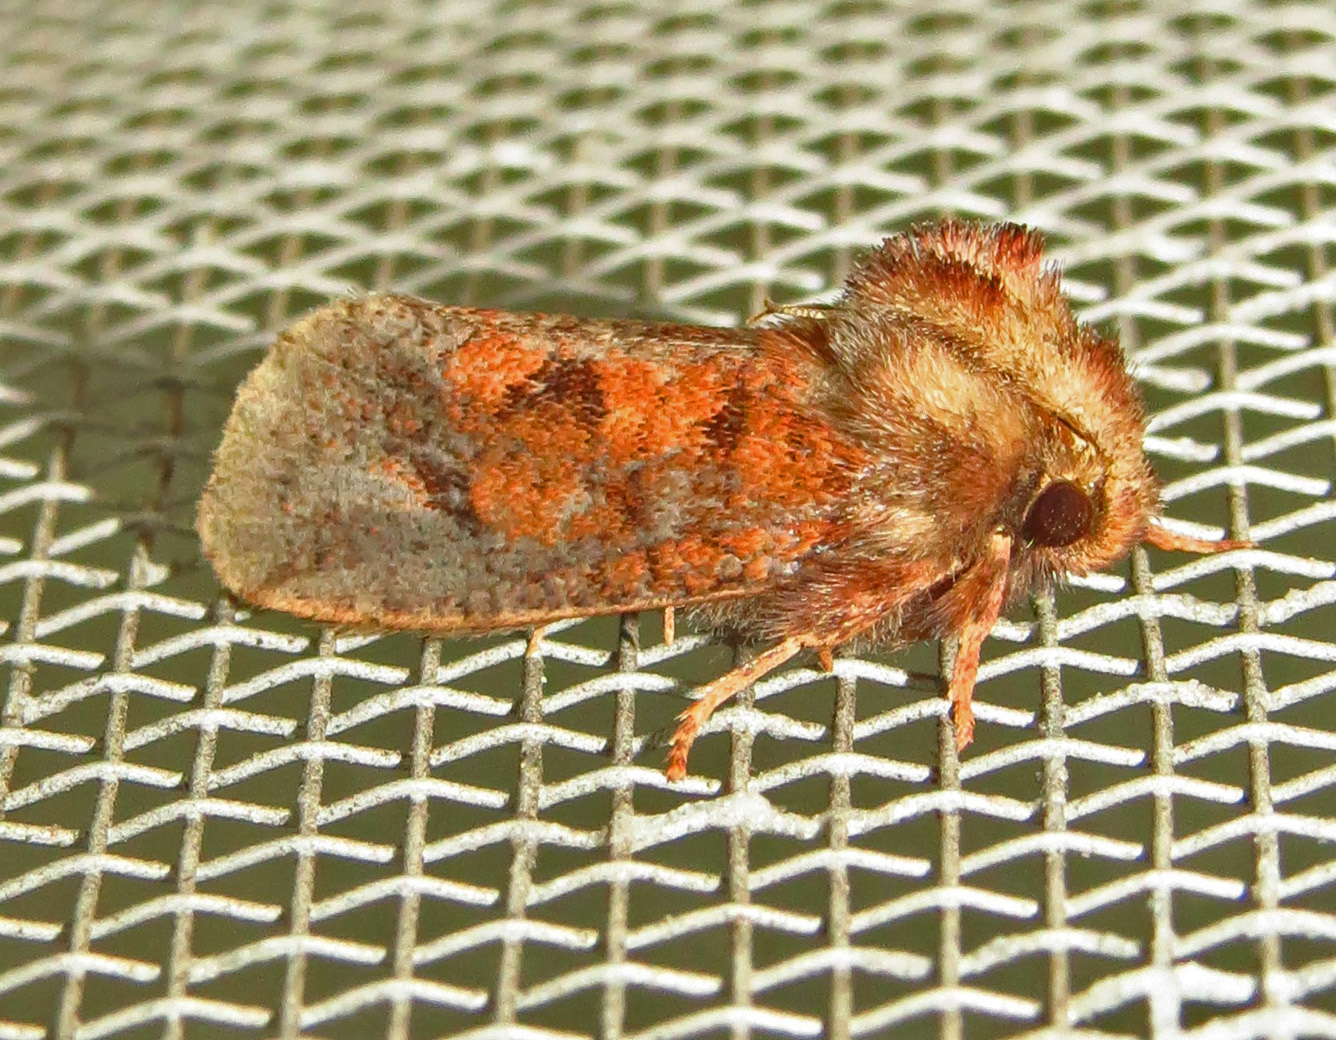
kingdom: Animalia
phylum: Arthropoda
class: Insecta
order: Lepidoptera
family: Tineidae
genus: Acrolophus
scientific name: Acrolophus plumifrontella
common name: Eastern grass tubeworm moth
